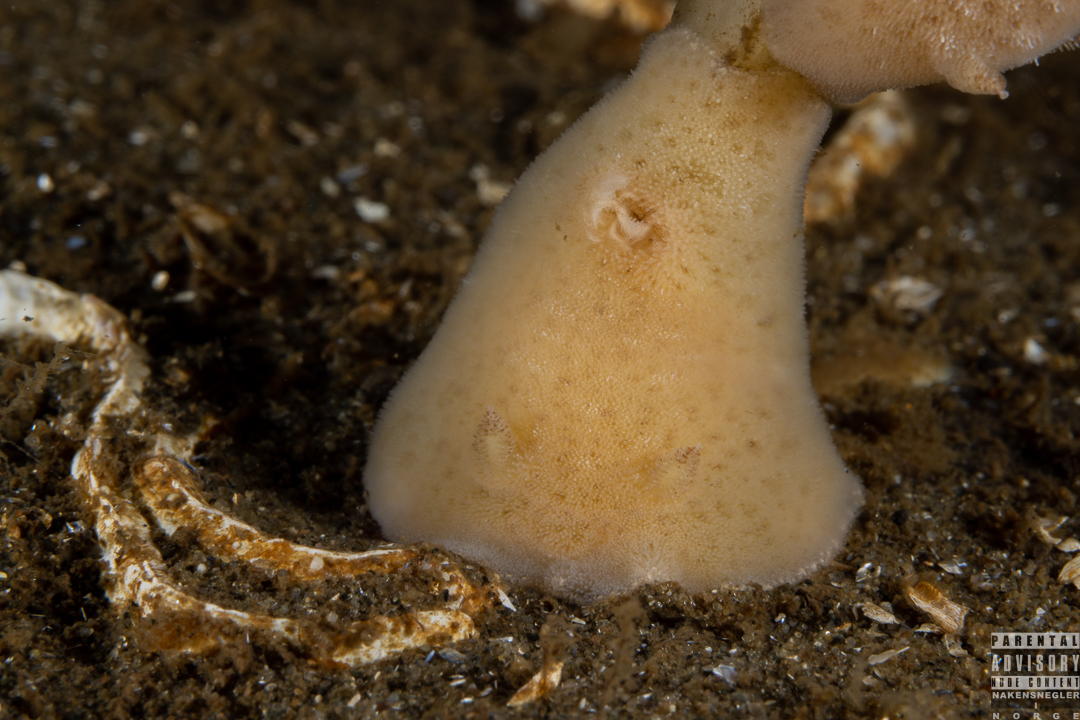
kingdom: Animalia
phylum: Mollusca
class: Gastropoda
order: Nudibranchia
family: Discodorididae
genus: Jorunna
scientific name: Jorunna tomentosa
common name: Grey sea slug
